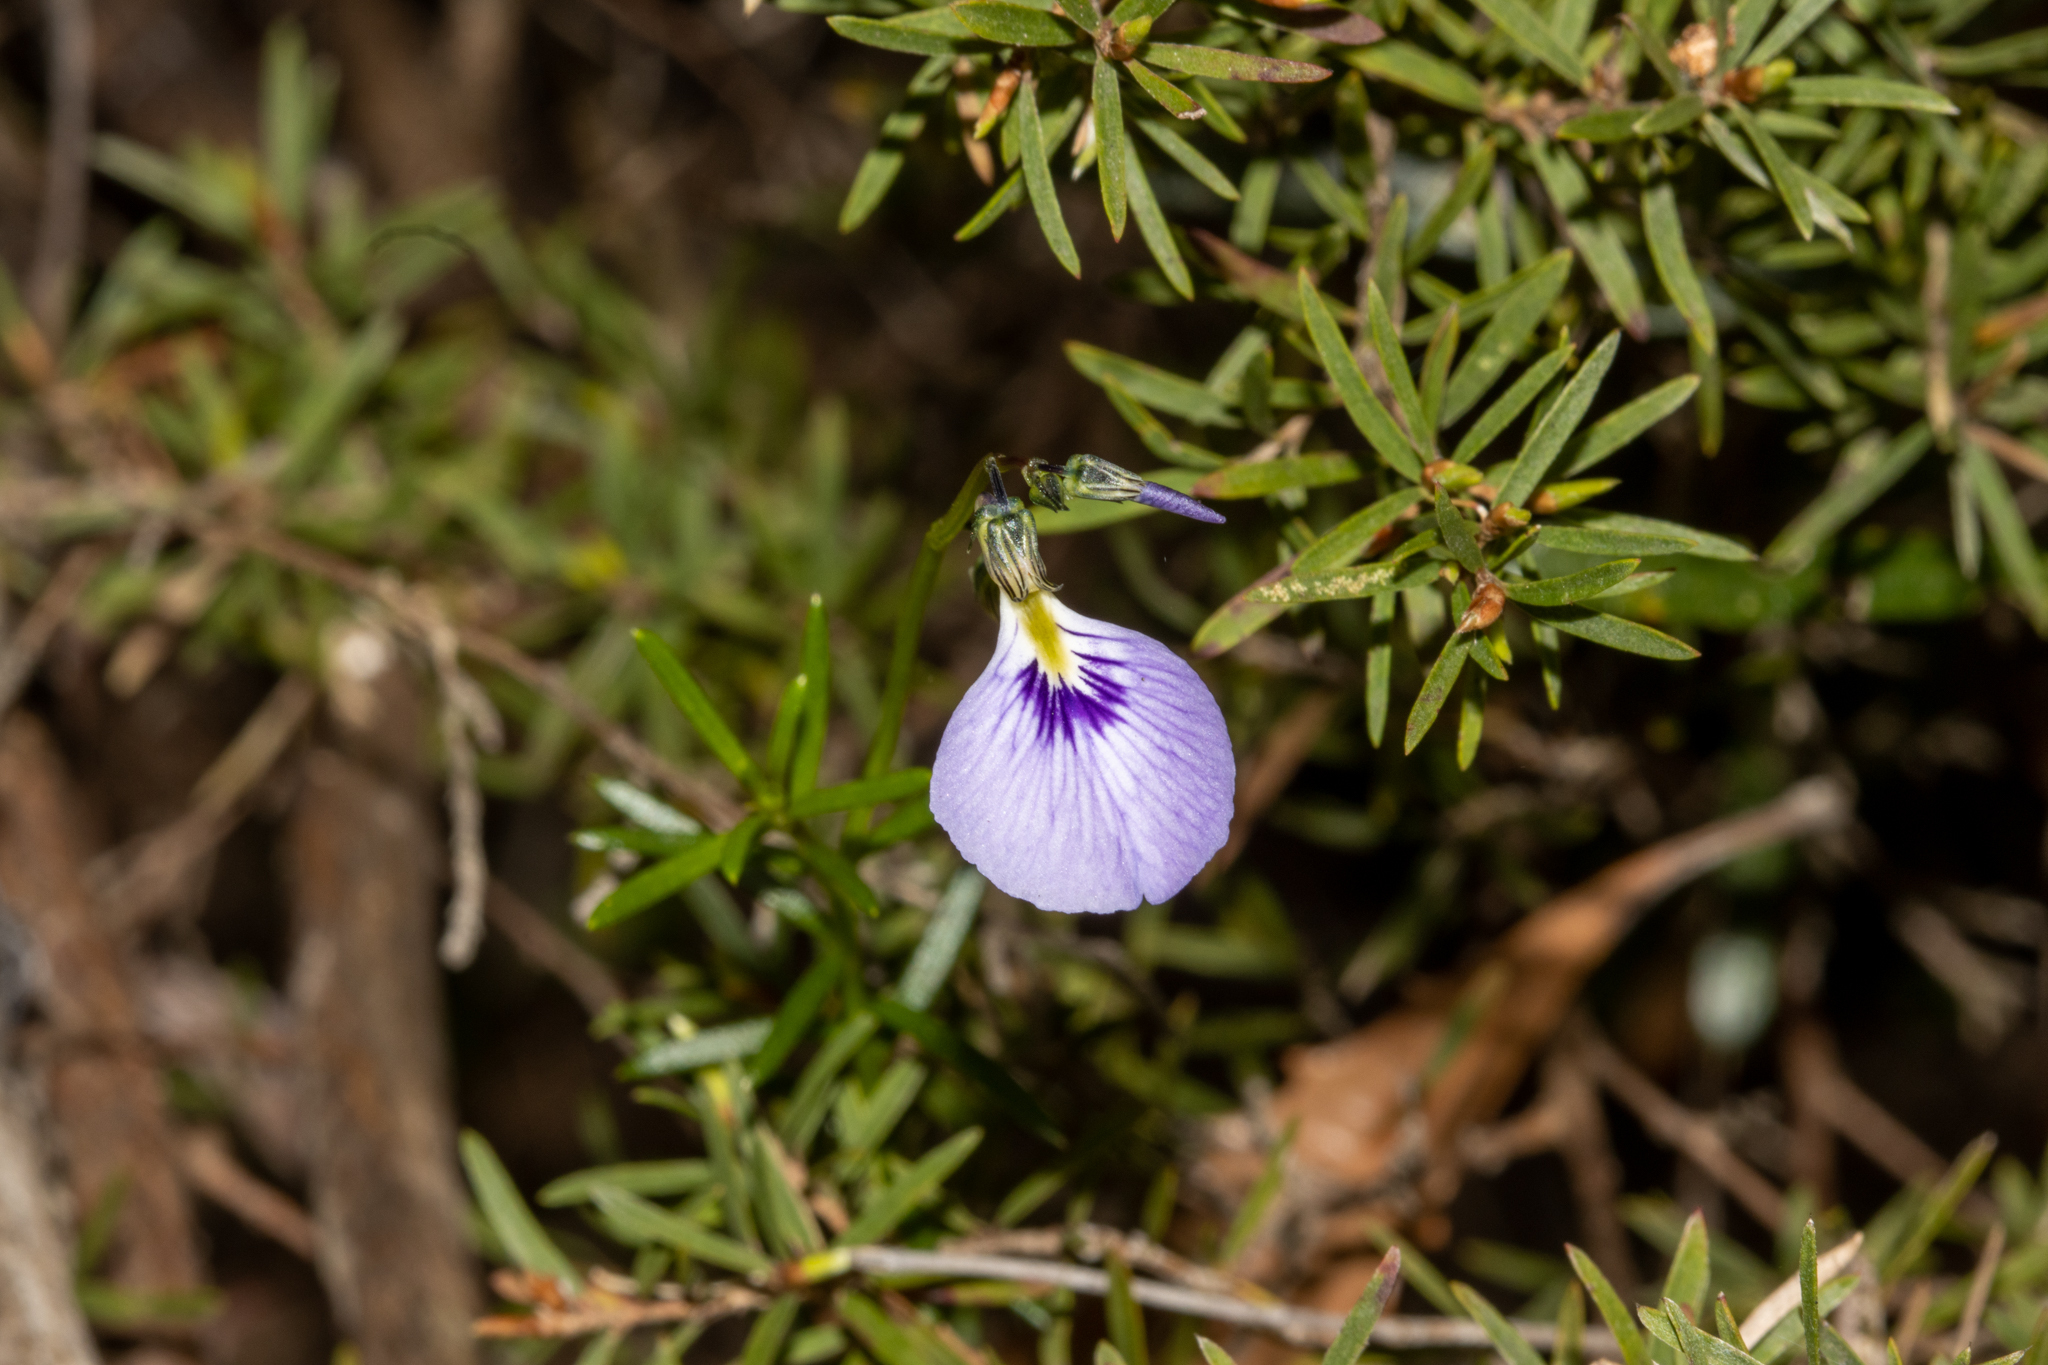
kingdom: Plantae
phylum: Tracheophyta
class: Magnoliopsida
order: Malpighiales
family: Violaceae
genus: Pigea
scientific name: Pigea monopetala
